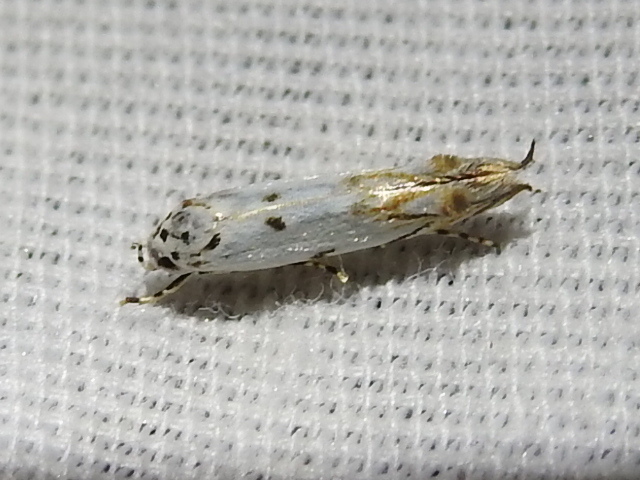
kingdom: Animalia
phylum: Arthropoda
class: Insecta
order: Lepidoptera
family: Momphidae
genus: Mompha
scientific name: Mompha eloisella
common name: Red-streaked mompha moth
